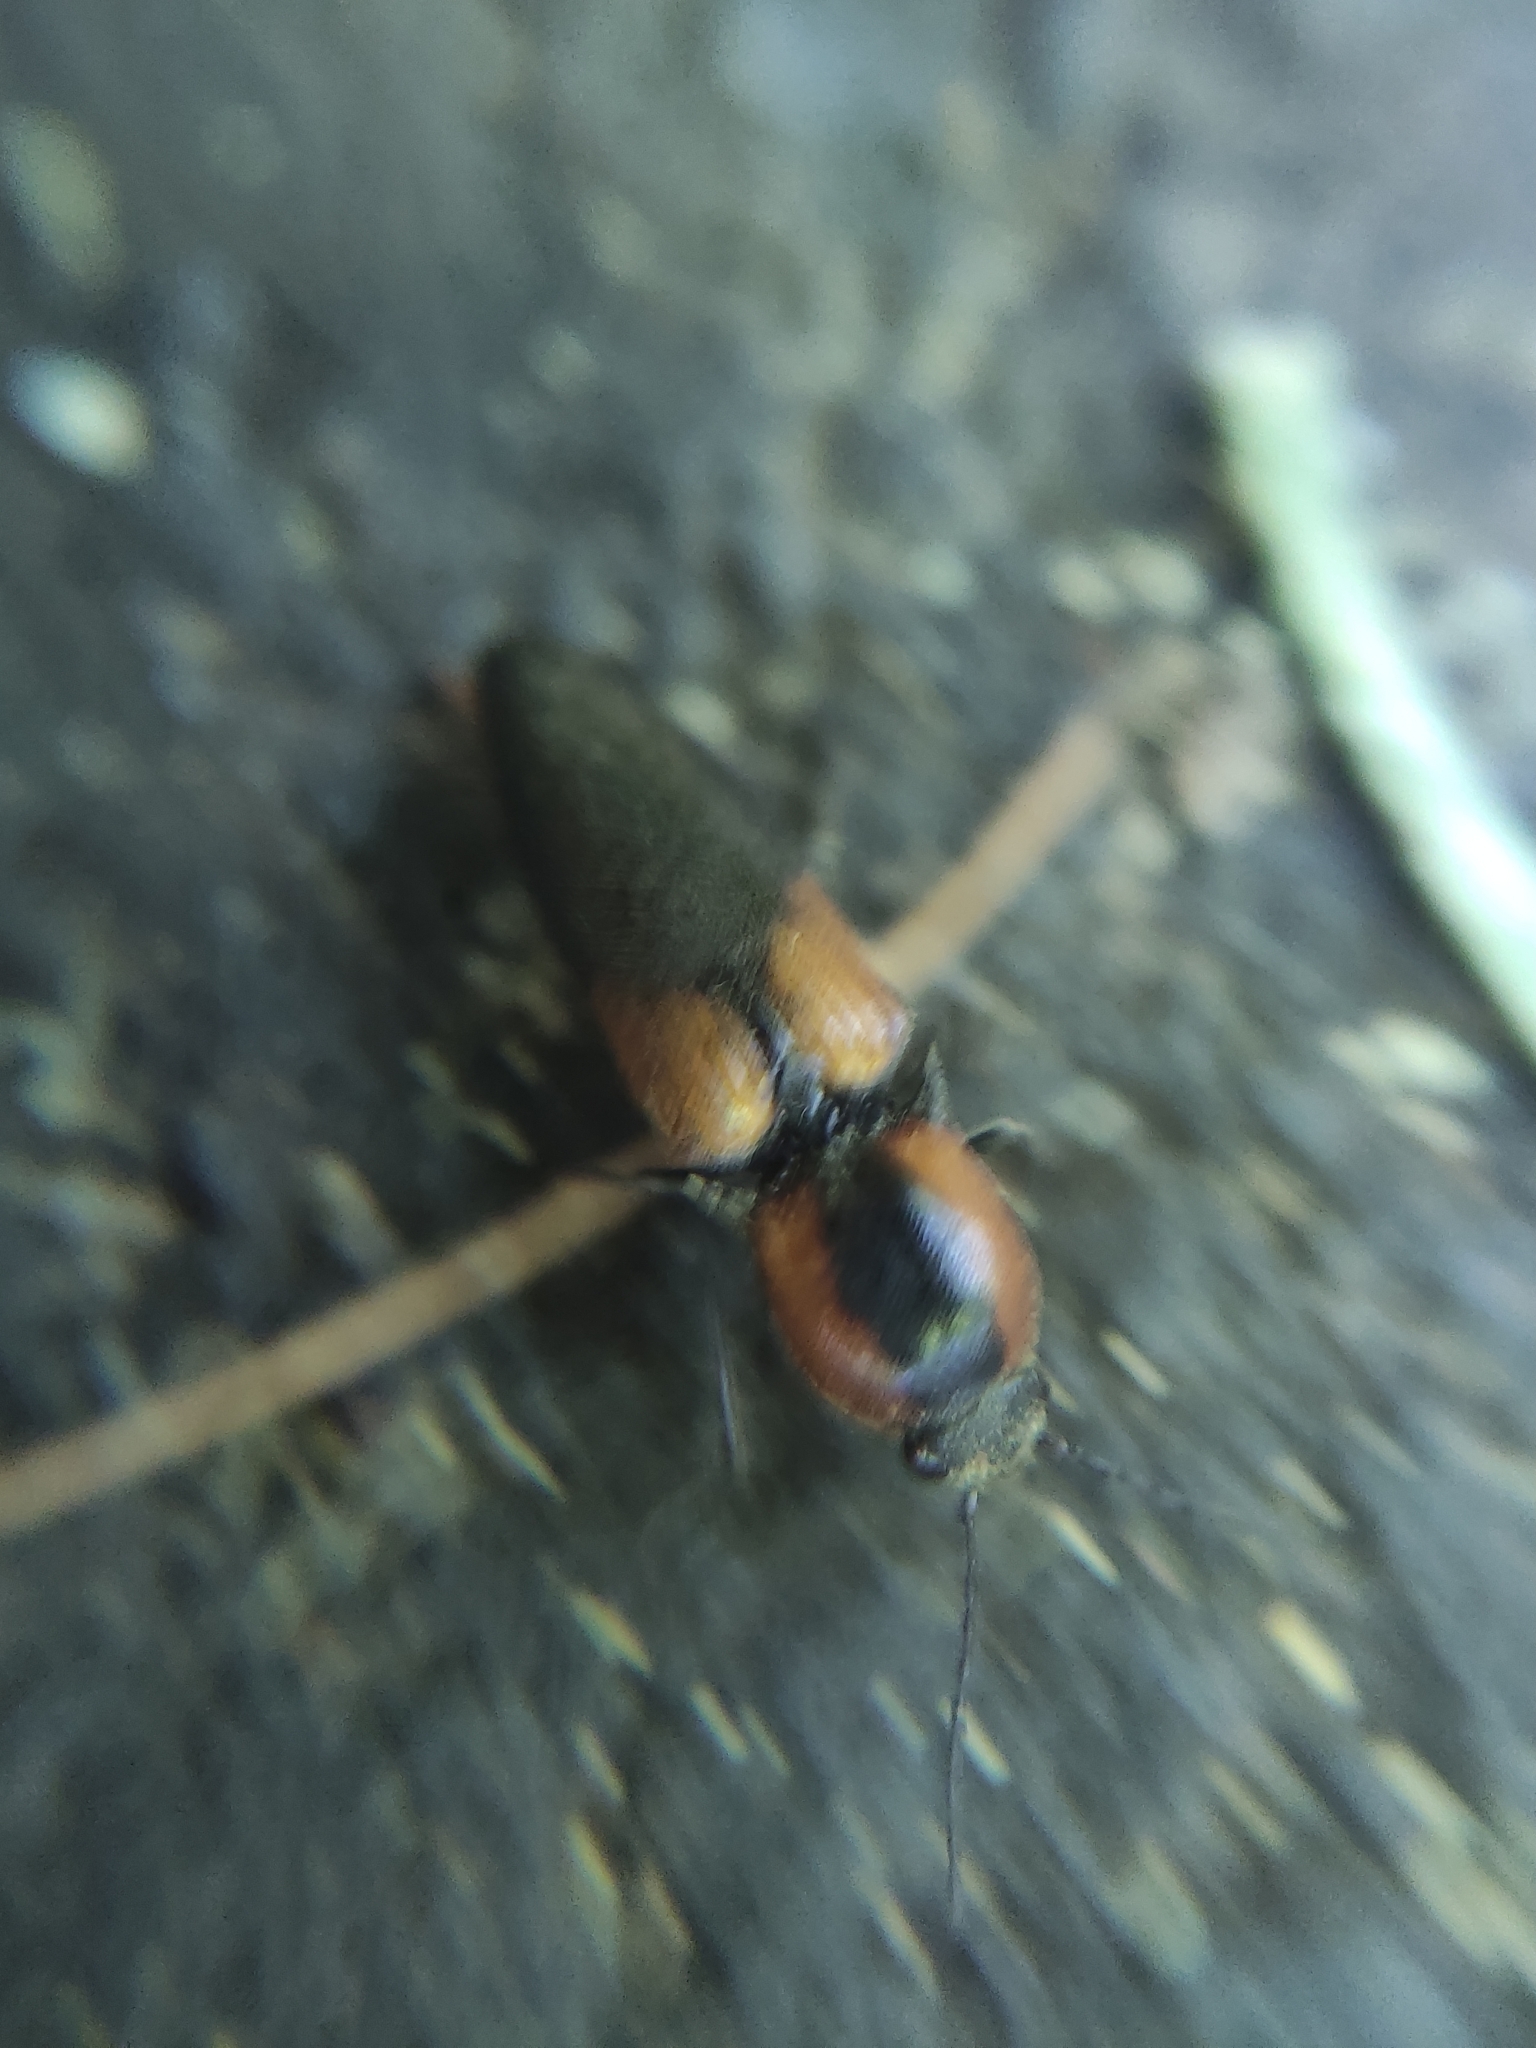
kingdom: Animalia
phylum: Arthropoda
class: Insecta
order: Coleoptera
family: Elateridae
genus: Monocrepidius
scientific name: Monocrepidius
